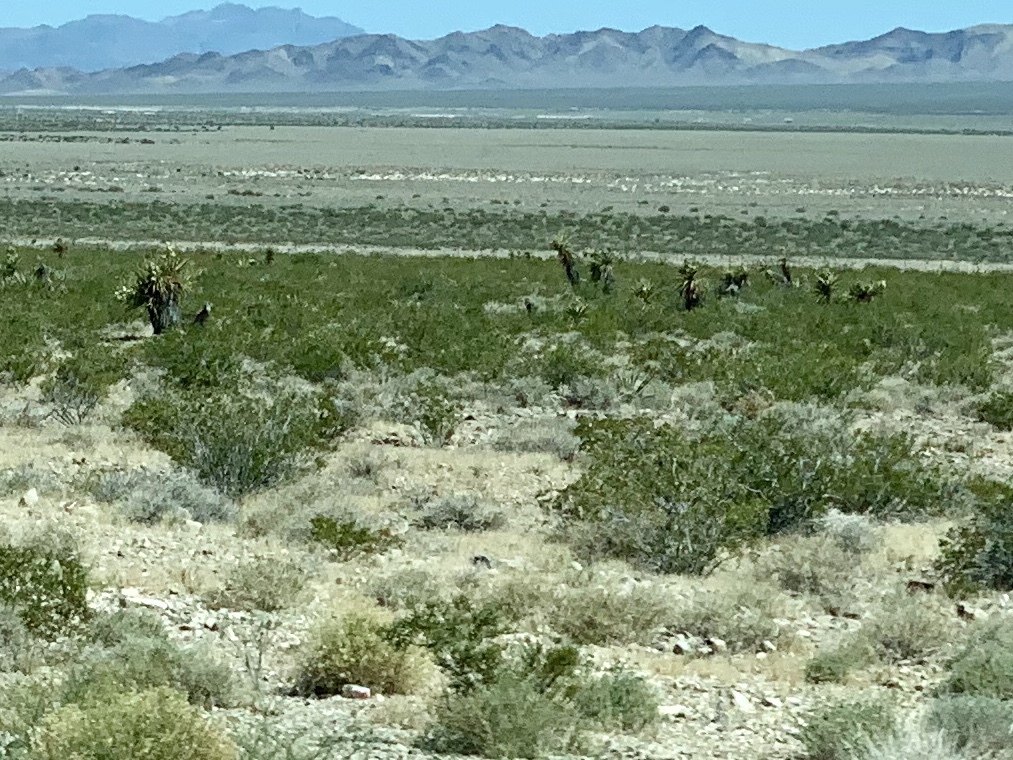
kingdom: Plantae
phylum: Tracheophyta
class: Magnoliopsida
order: Zygophyllales
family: Zygophyllaceae
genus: Larrea
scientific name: Larrea tridentata
